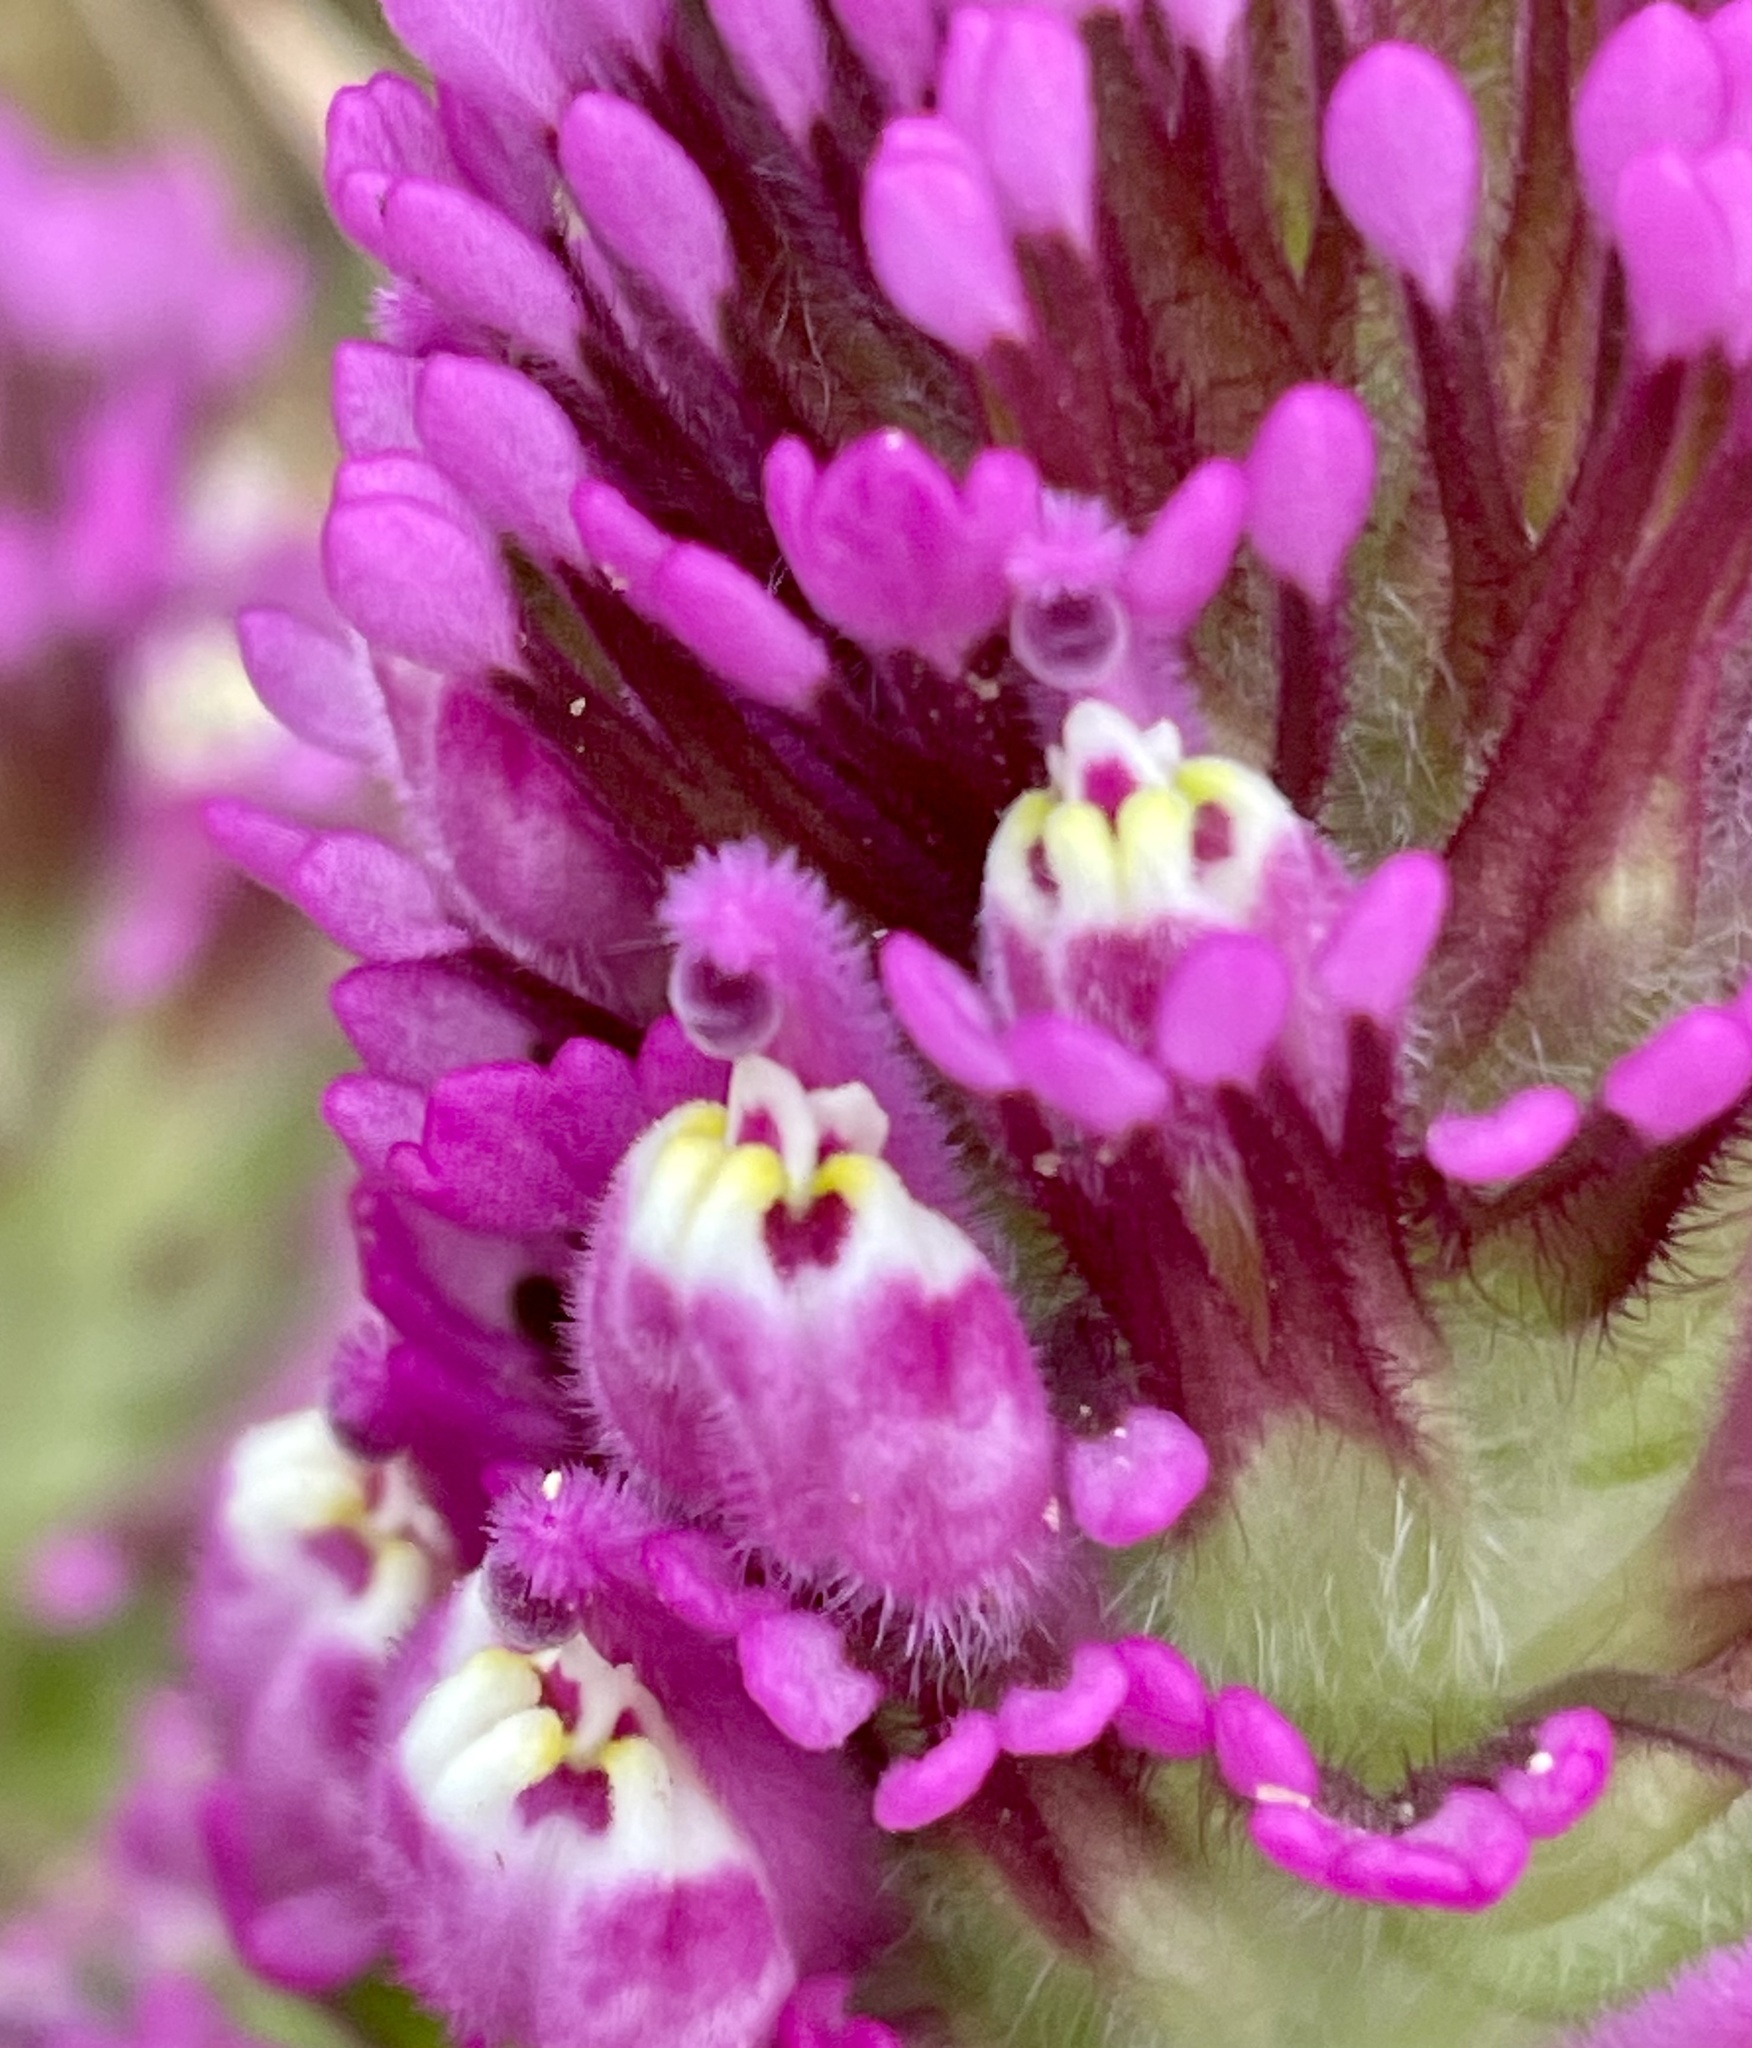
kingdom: Plantae
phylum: Tracheophyta
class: Magnoliopsida
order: Lamiales
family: Orobanchaceae
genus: Castilleja
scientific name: Castilleja exserta
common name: Purple owl-clover
